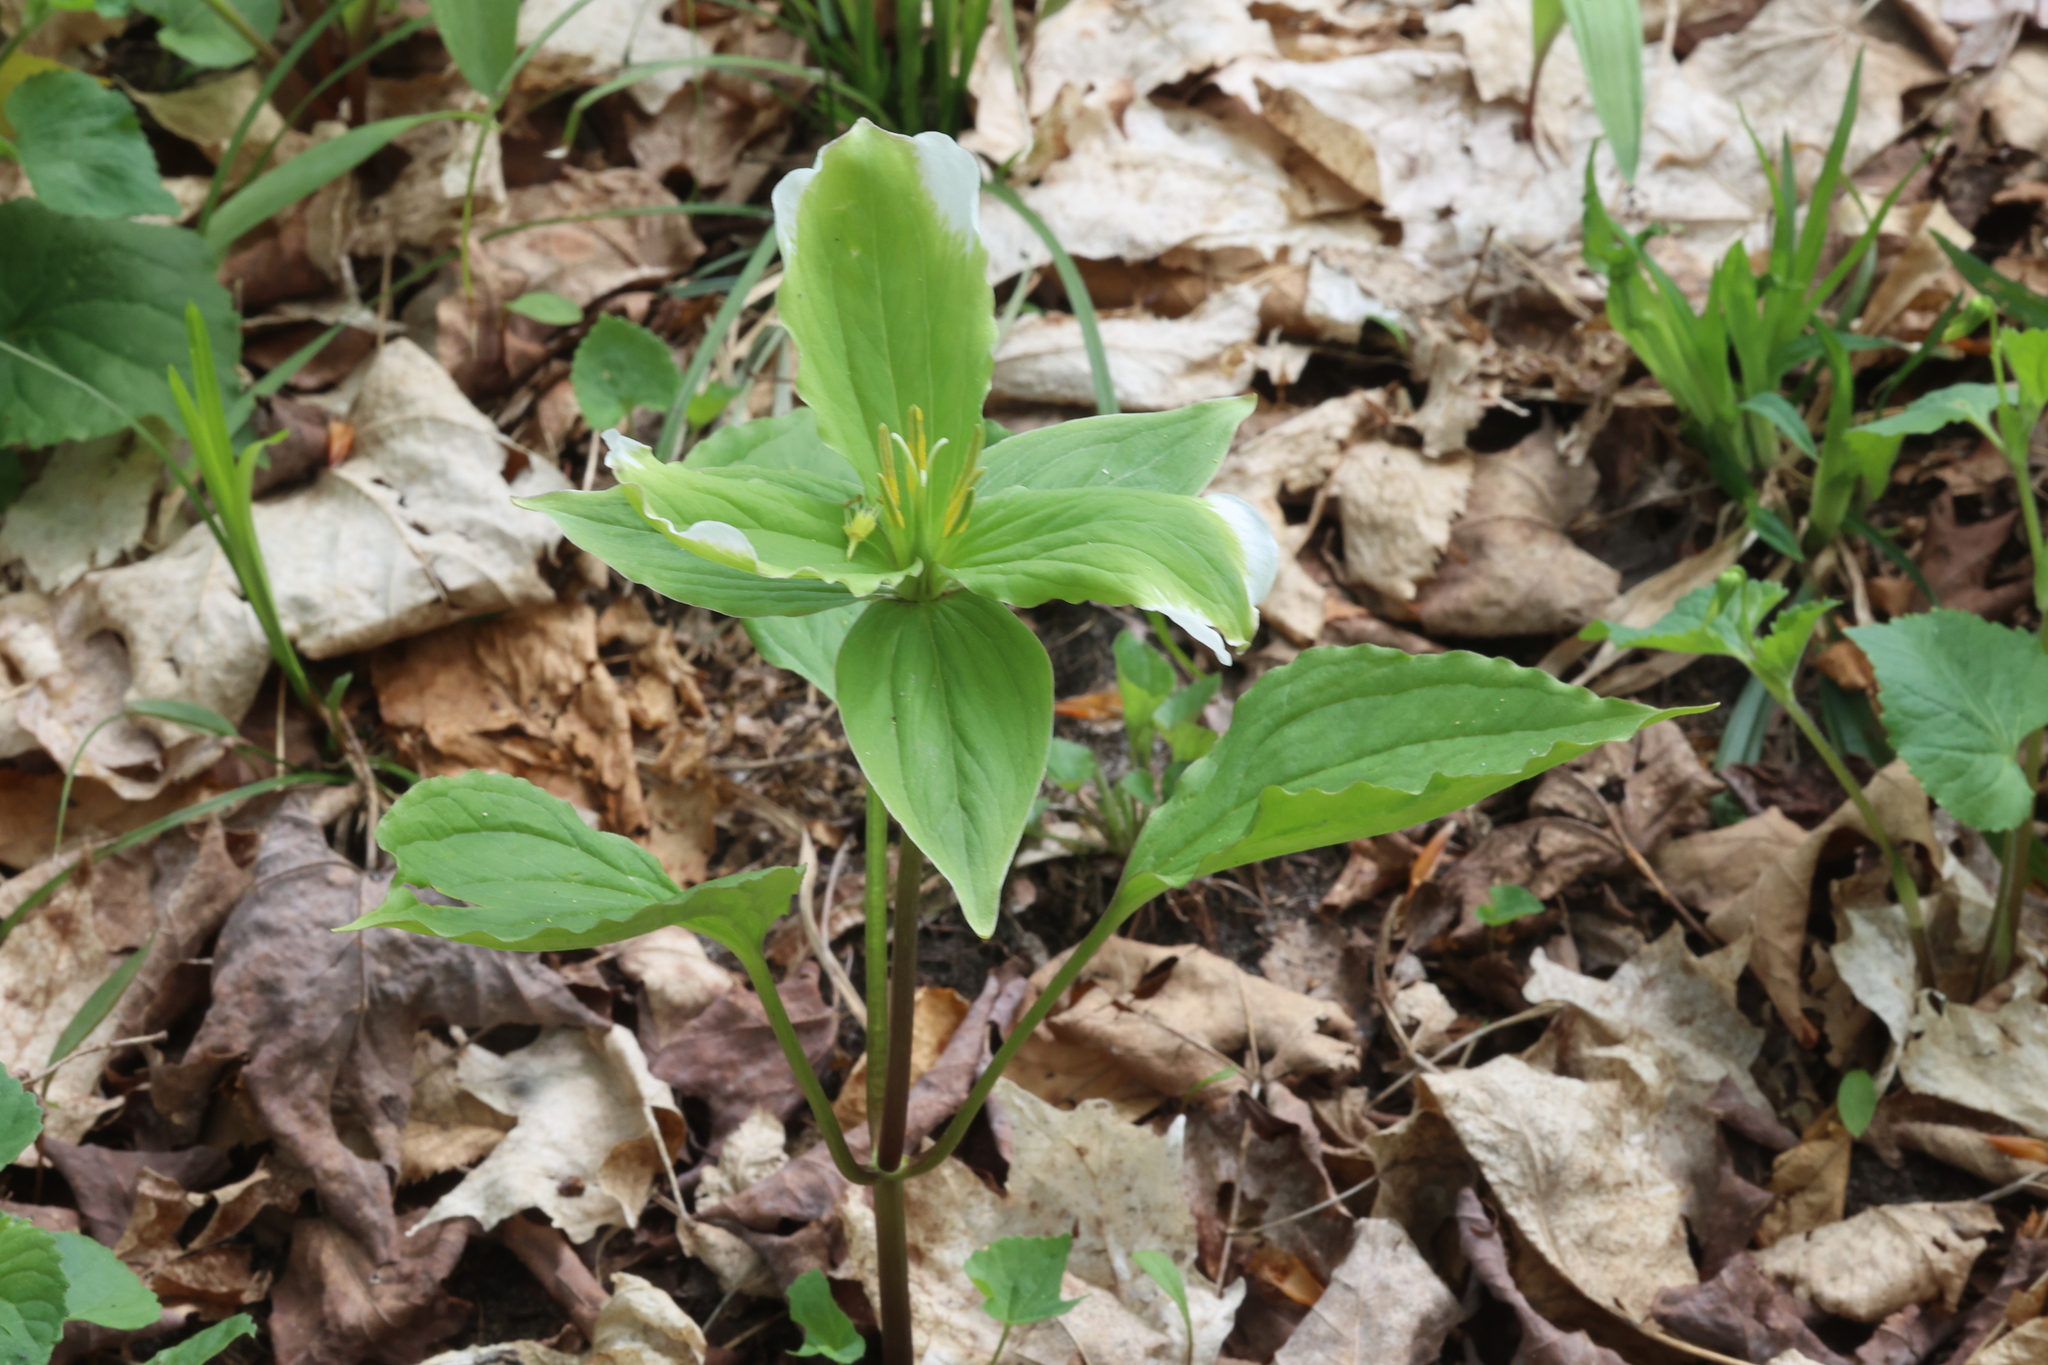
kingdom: Plantae
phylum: Tracheophyta
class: Liliopsida
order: Liliales
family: Melanthiaceae
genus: Trillium
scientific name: Trillium grandiflorum
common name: Great white trillium
